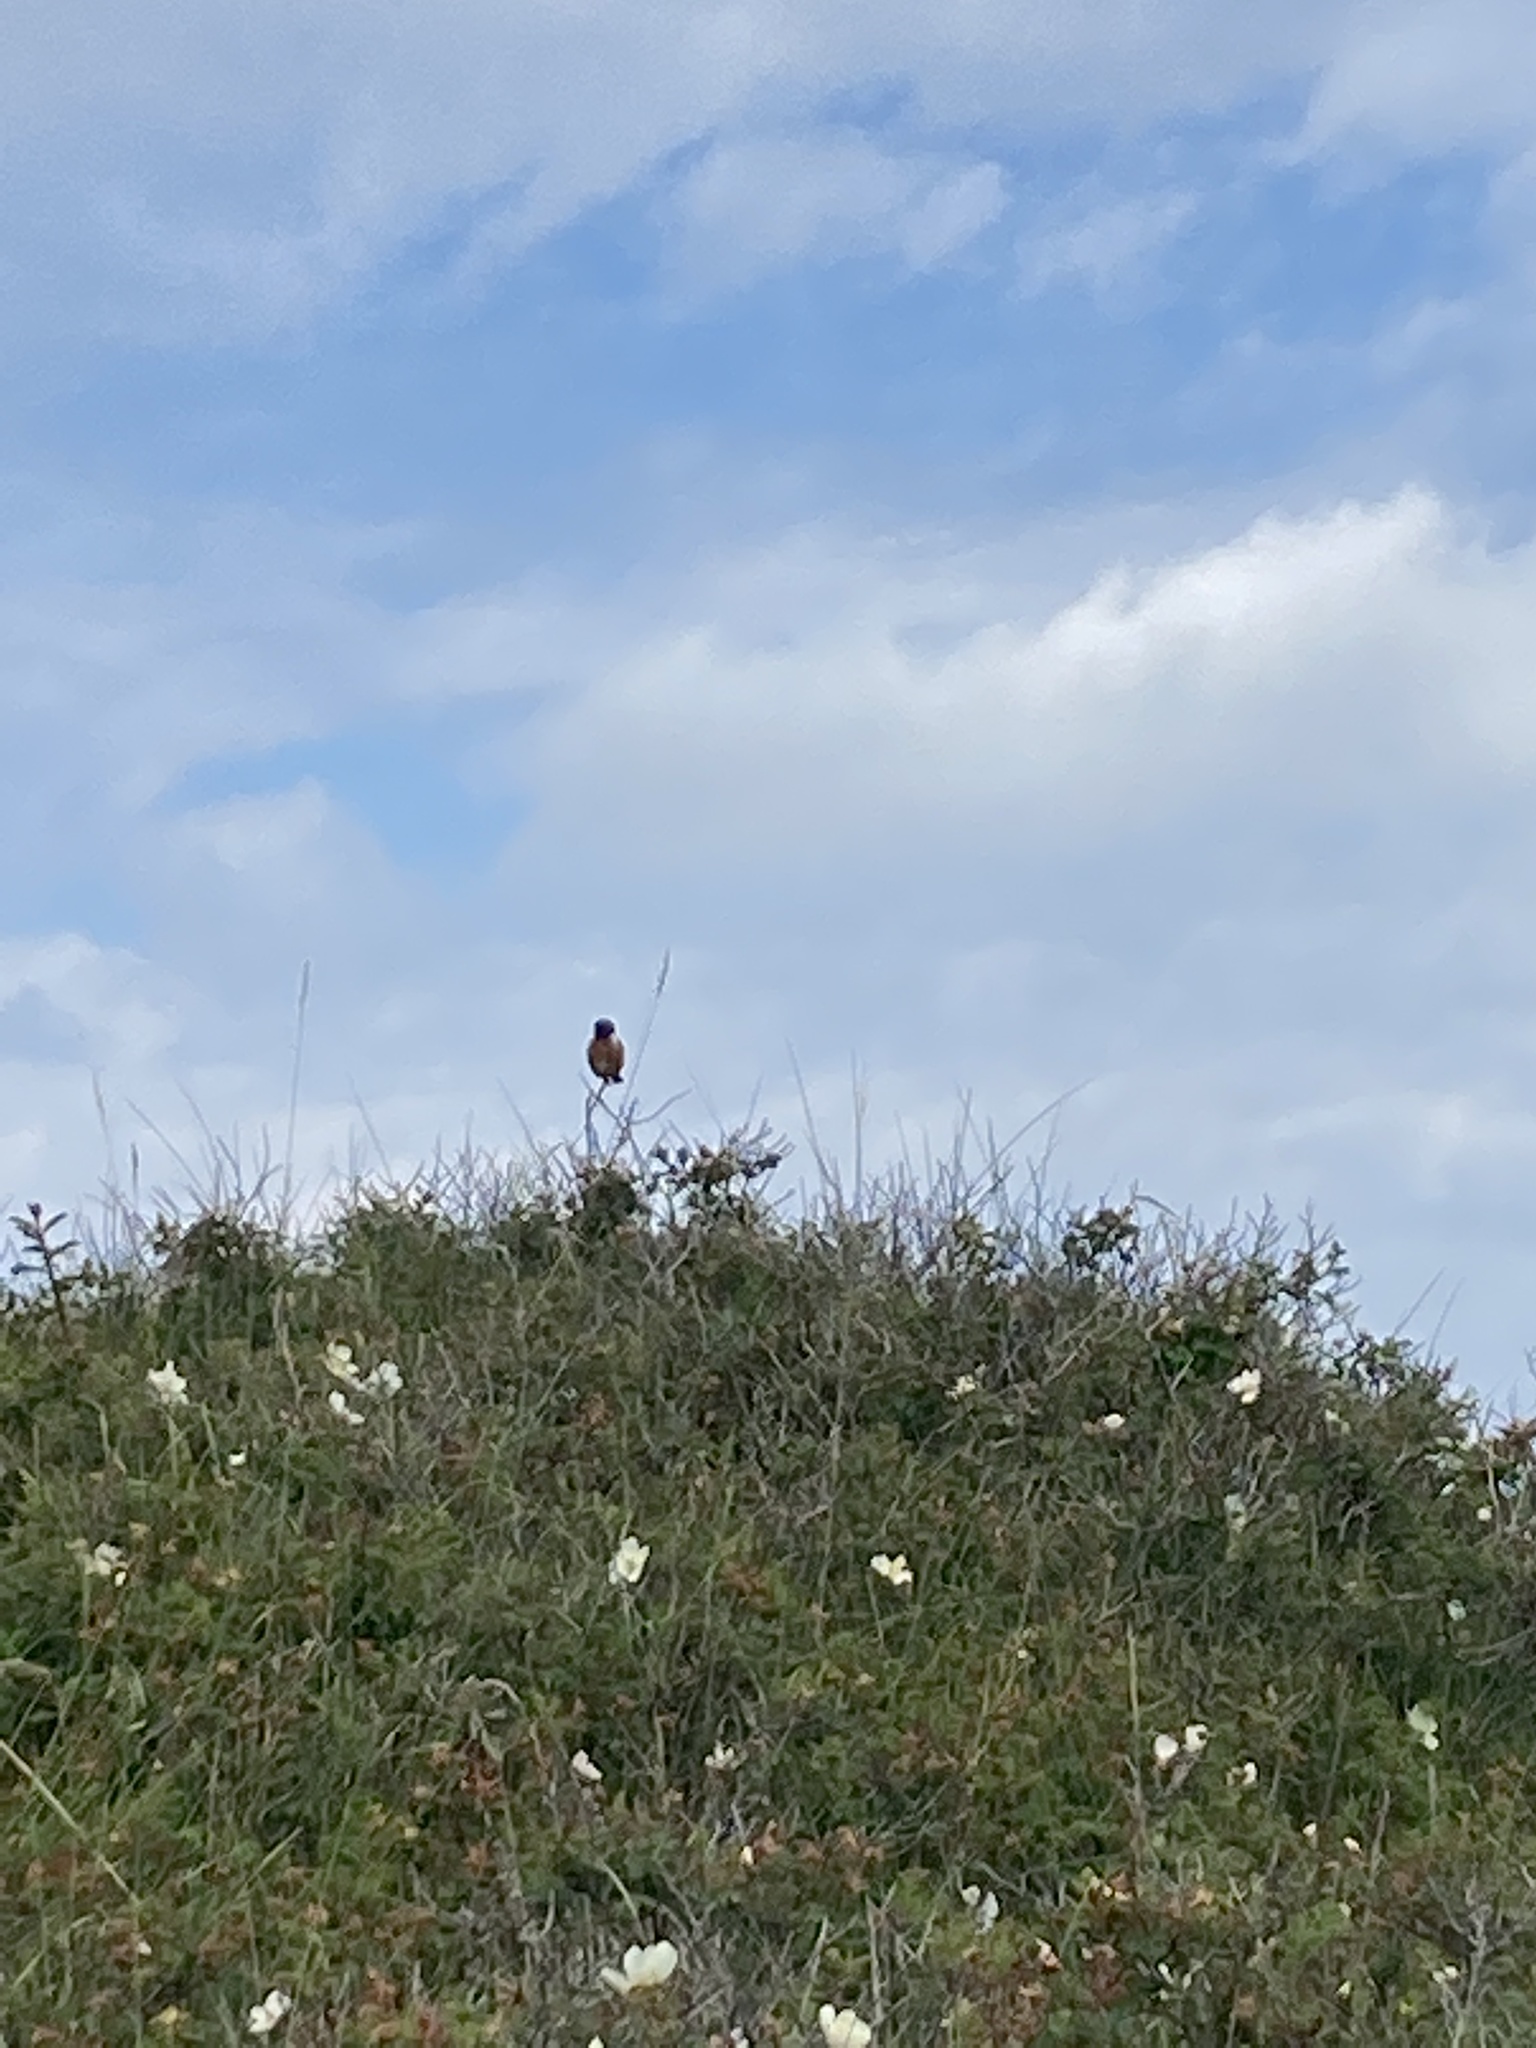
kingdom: Animalia
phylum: Chordata
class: Aves
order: Passeriformes
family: Muscicapidae
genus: Saxicola
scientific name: Saxicola rubicola
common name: European stonechat
